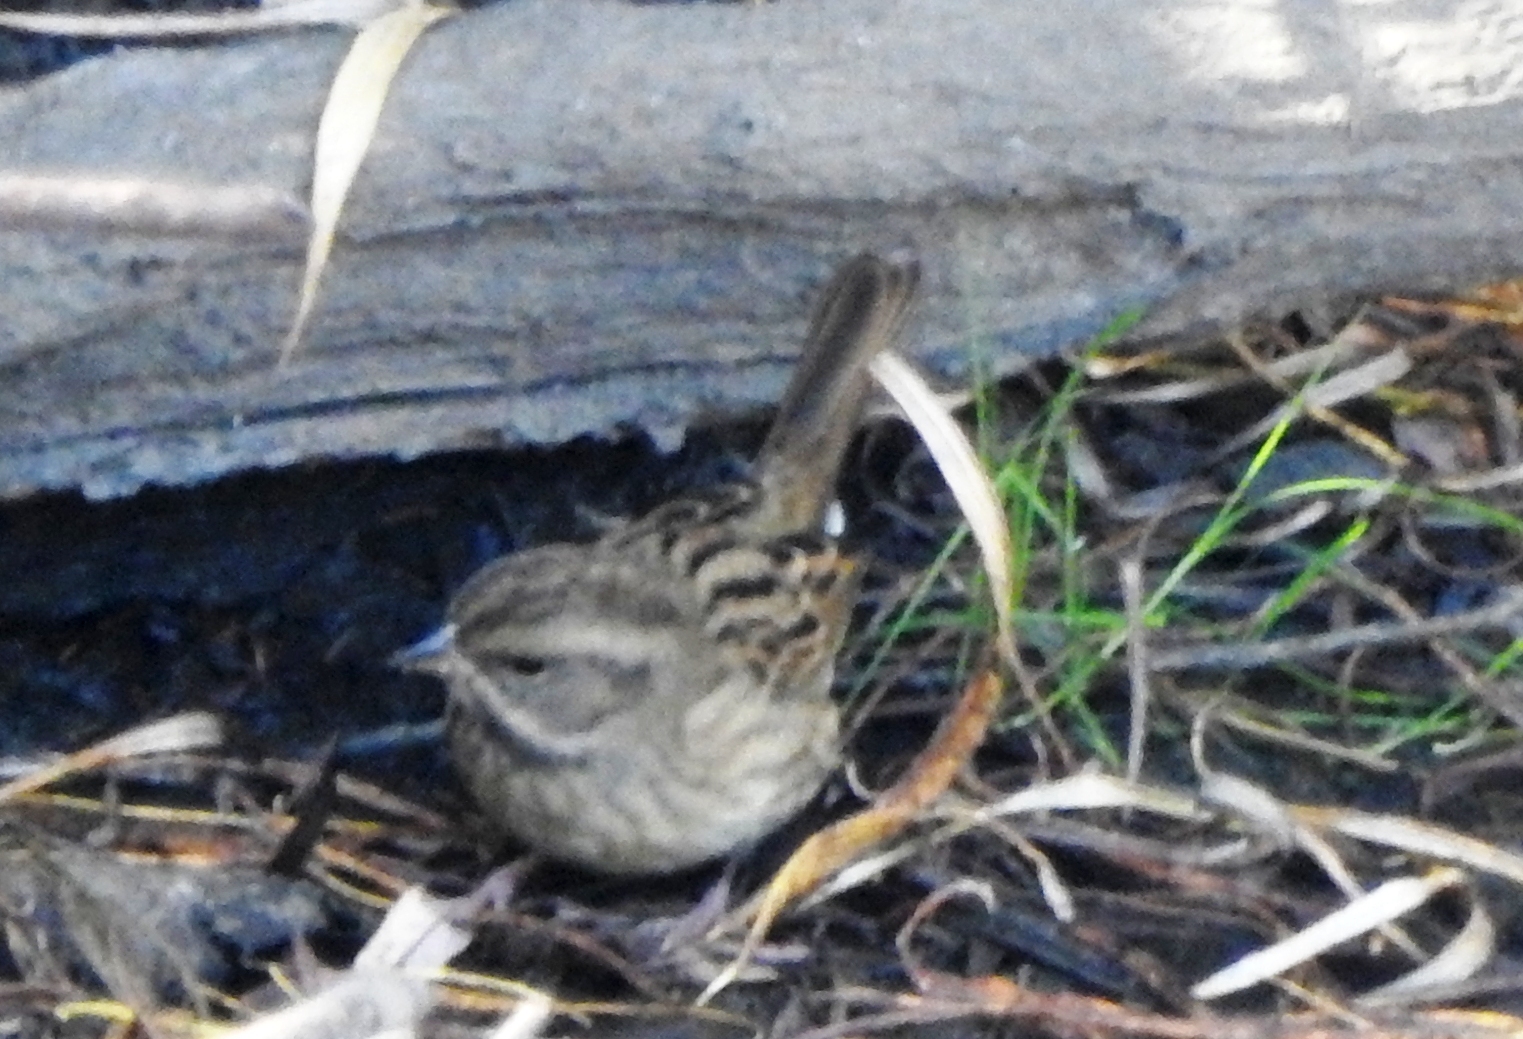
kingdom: Animalia
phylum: Chordata
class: Aves
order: Passeriformes
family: Emberizidae
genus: Emberiza
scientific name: Emberiza spodocephala
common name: Black-faced bunting
